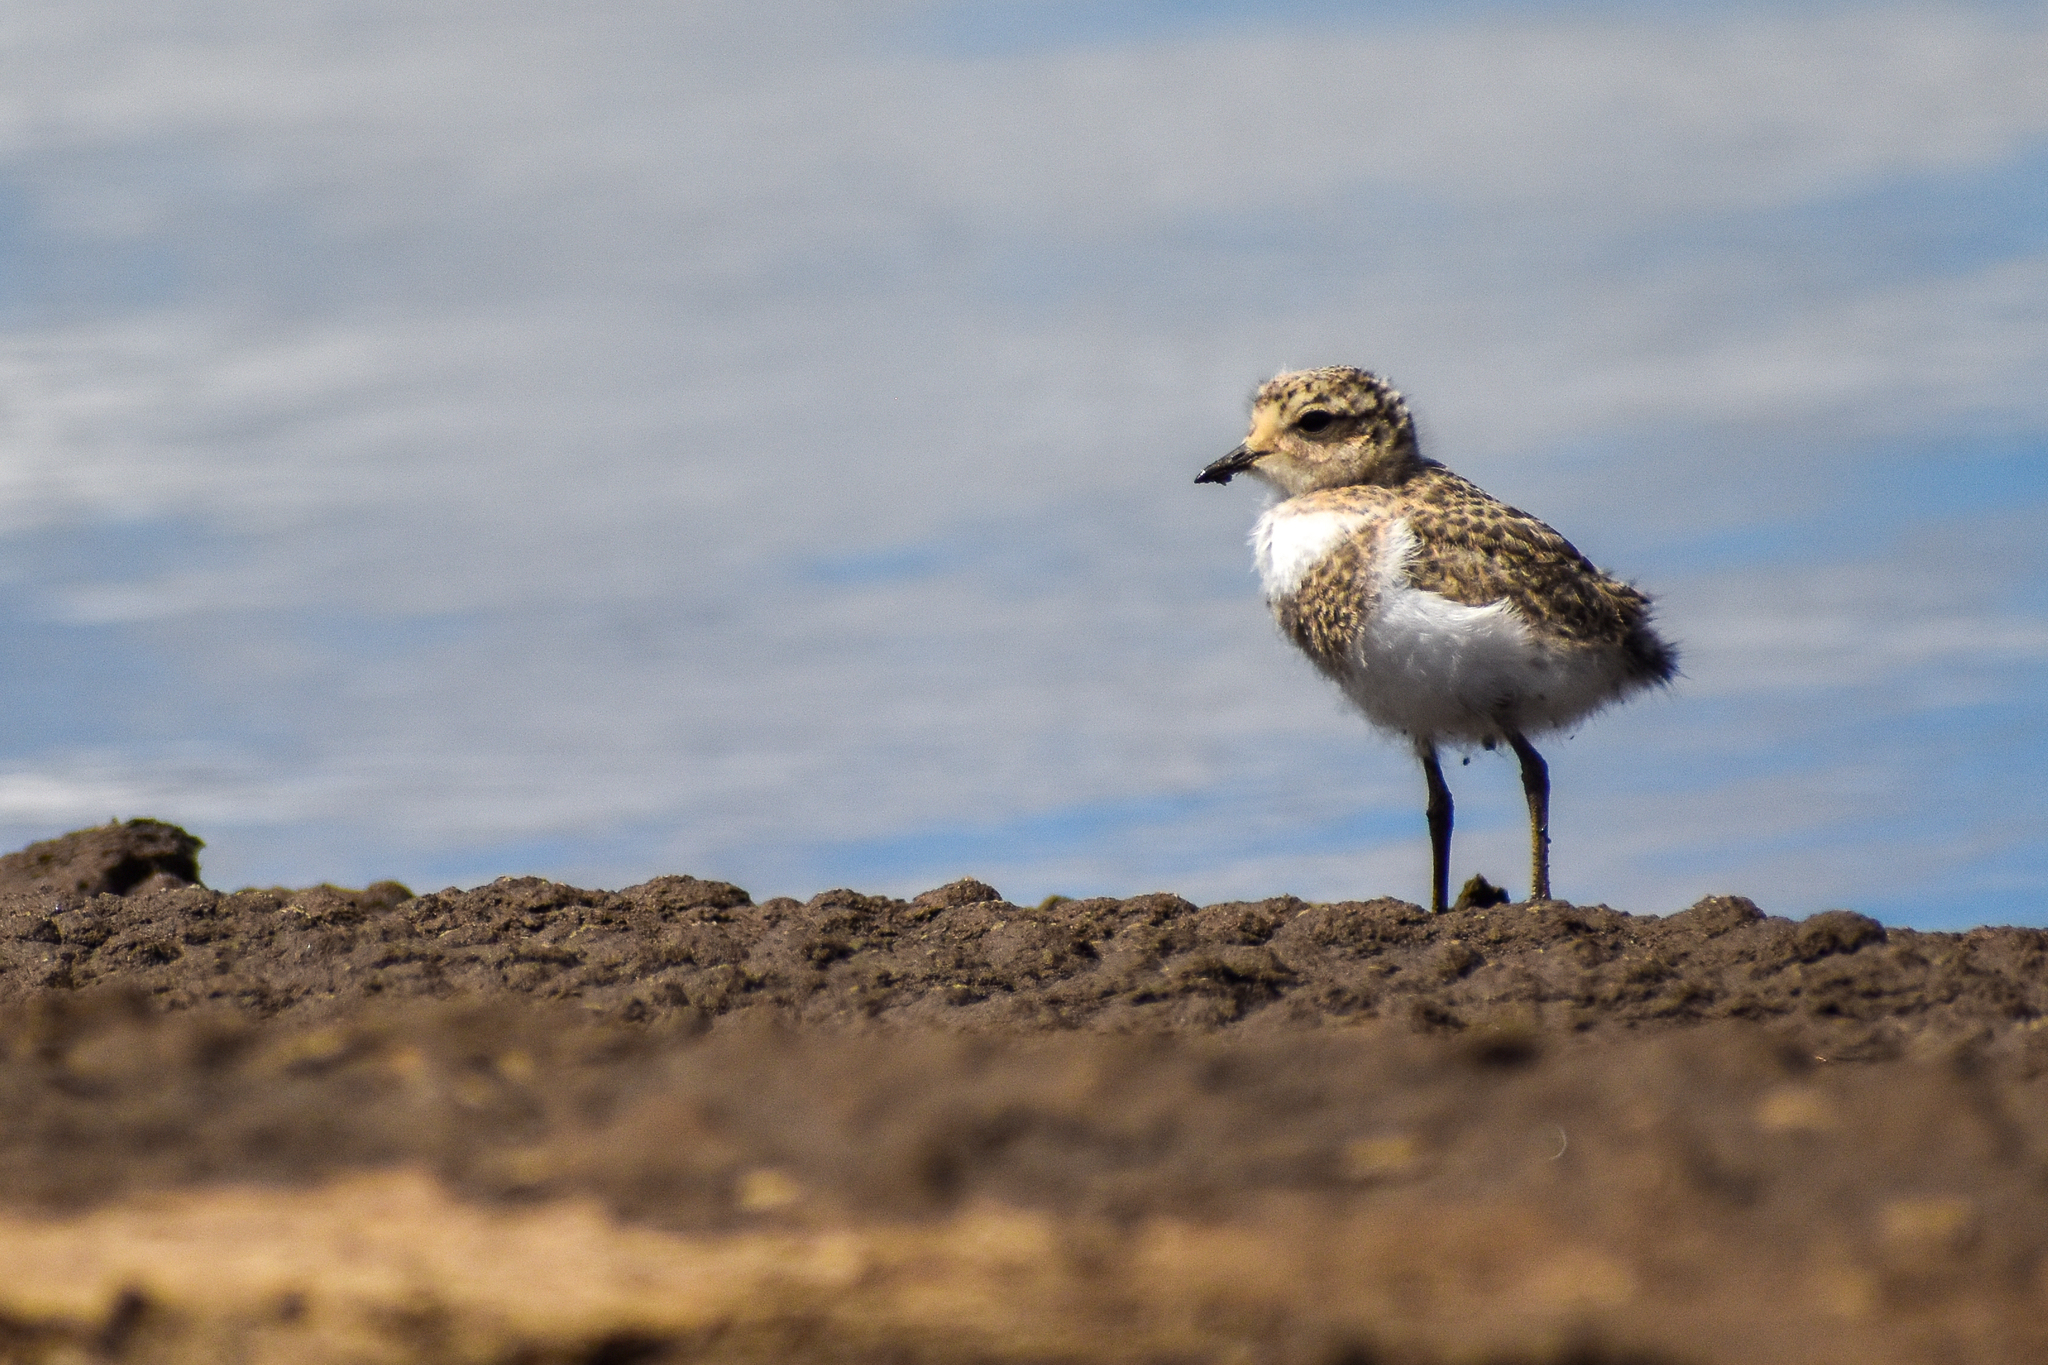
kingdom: Animalia
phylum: Chordata
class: Aves
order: Charadriiformes
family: Charadriidae
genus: Anarhynchus
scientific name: Anarhynchus
